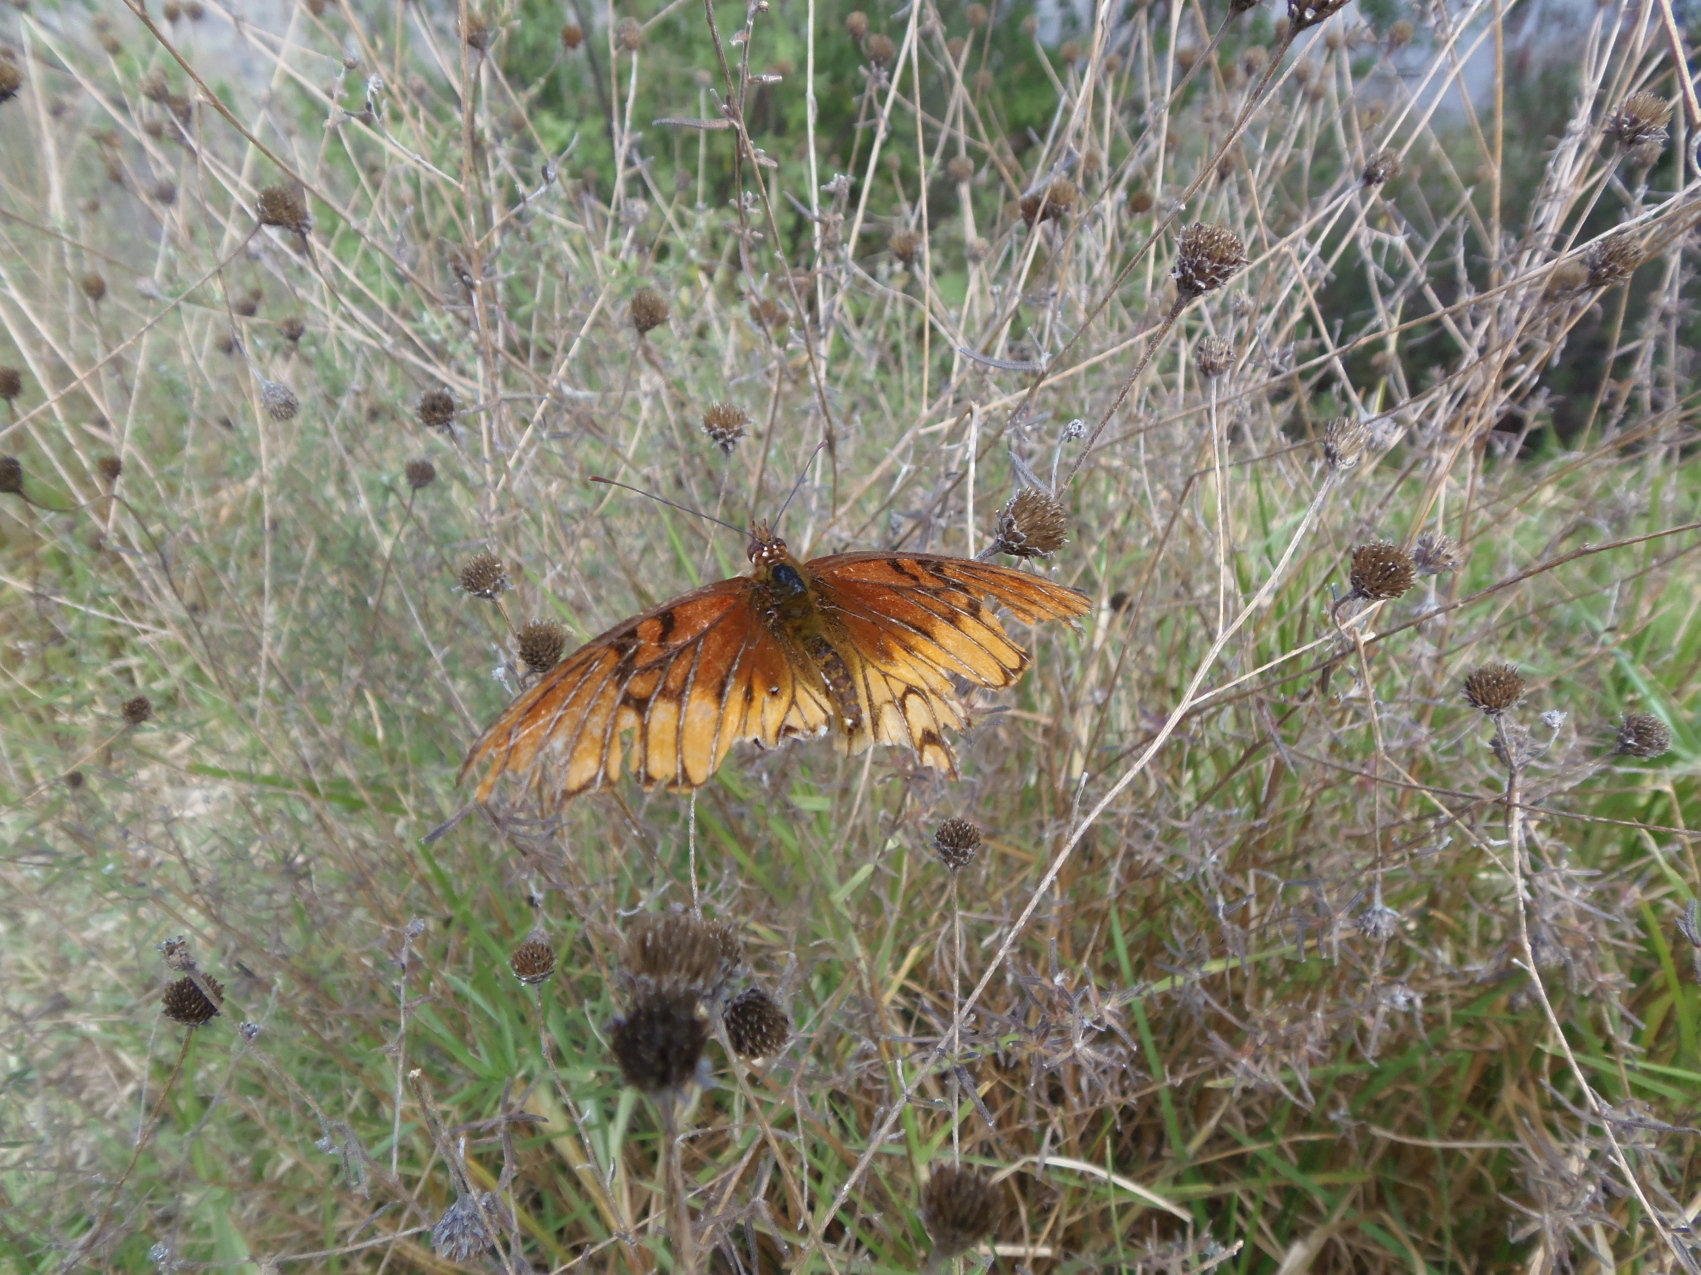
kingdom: Animalia
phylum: Arthropoda
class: Insecta
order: Lepidoptera
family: Nymphalidae
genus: Dione
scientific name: Dione moneta
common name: Mexican silverspot
